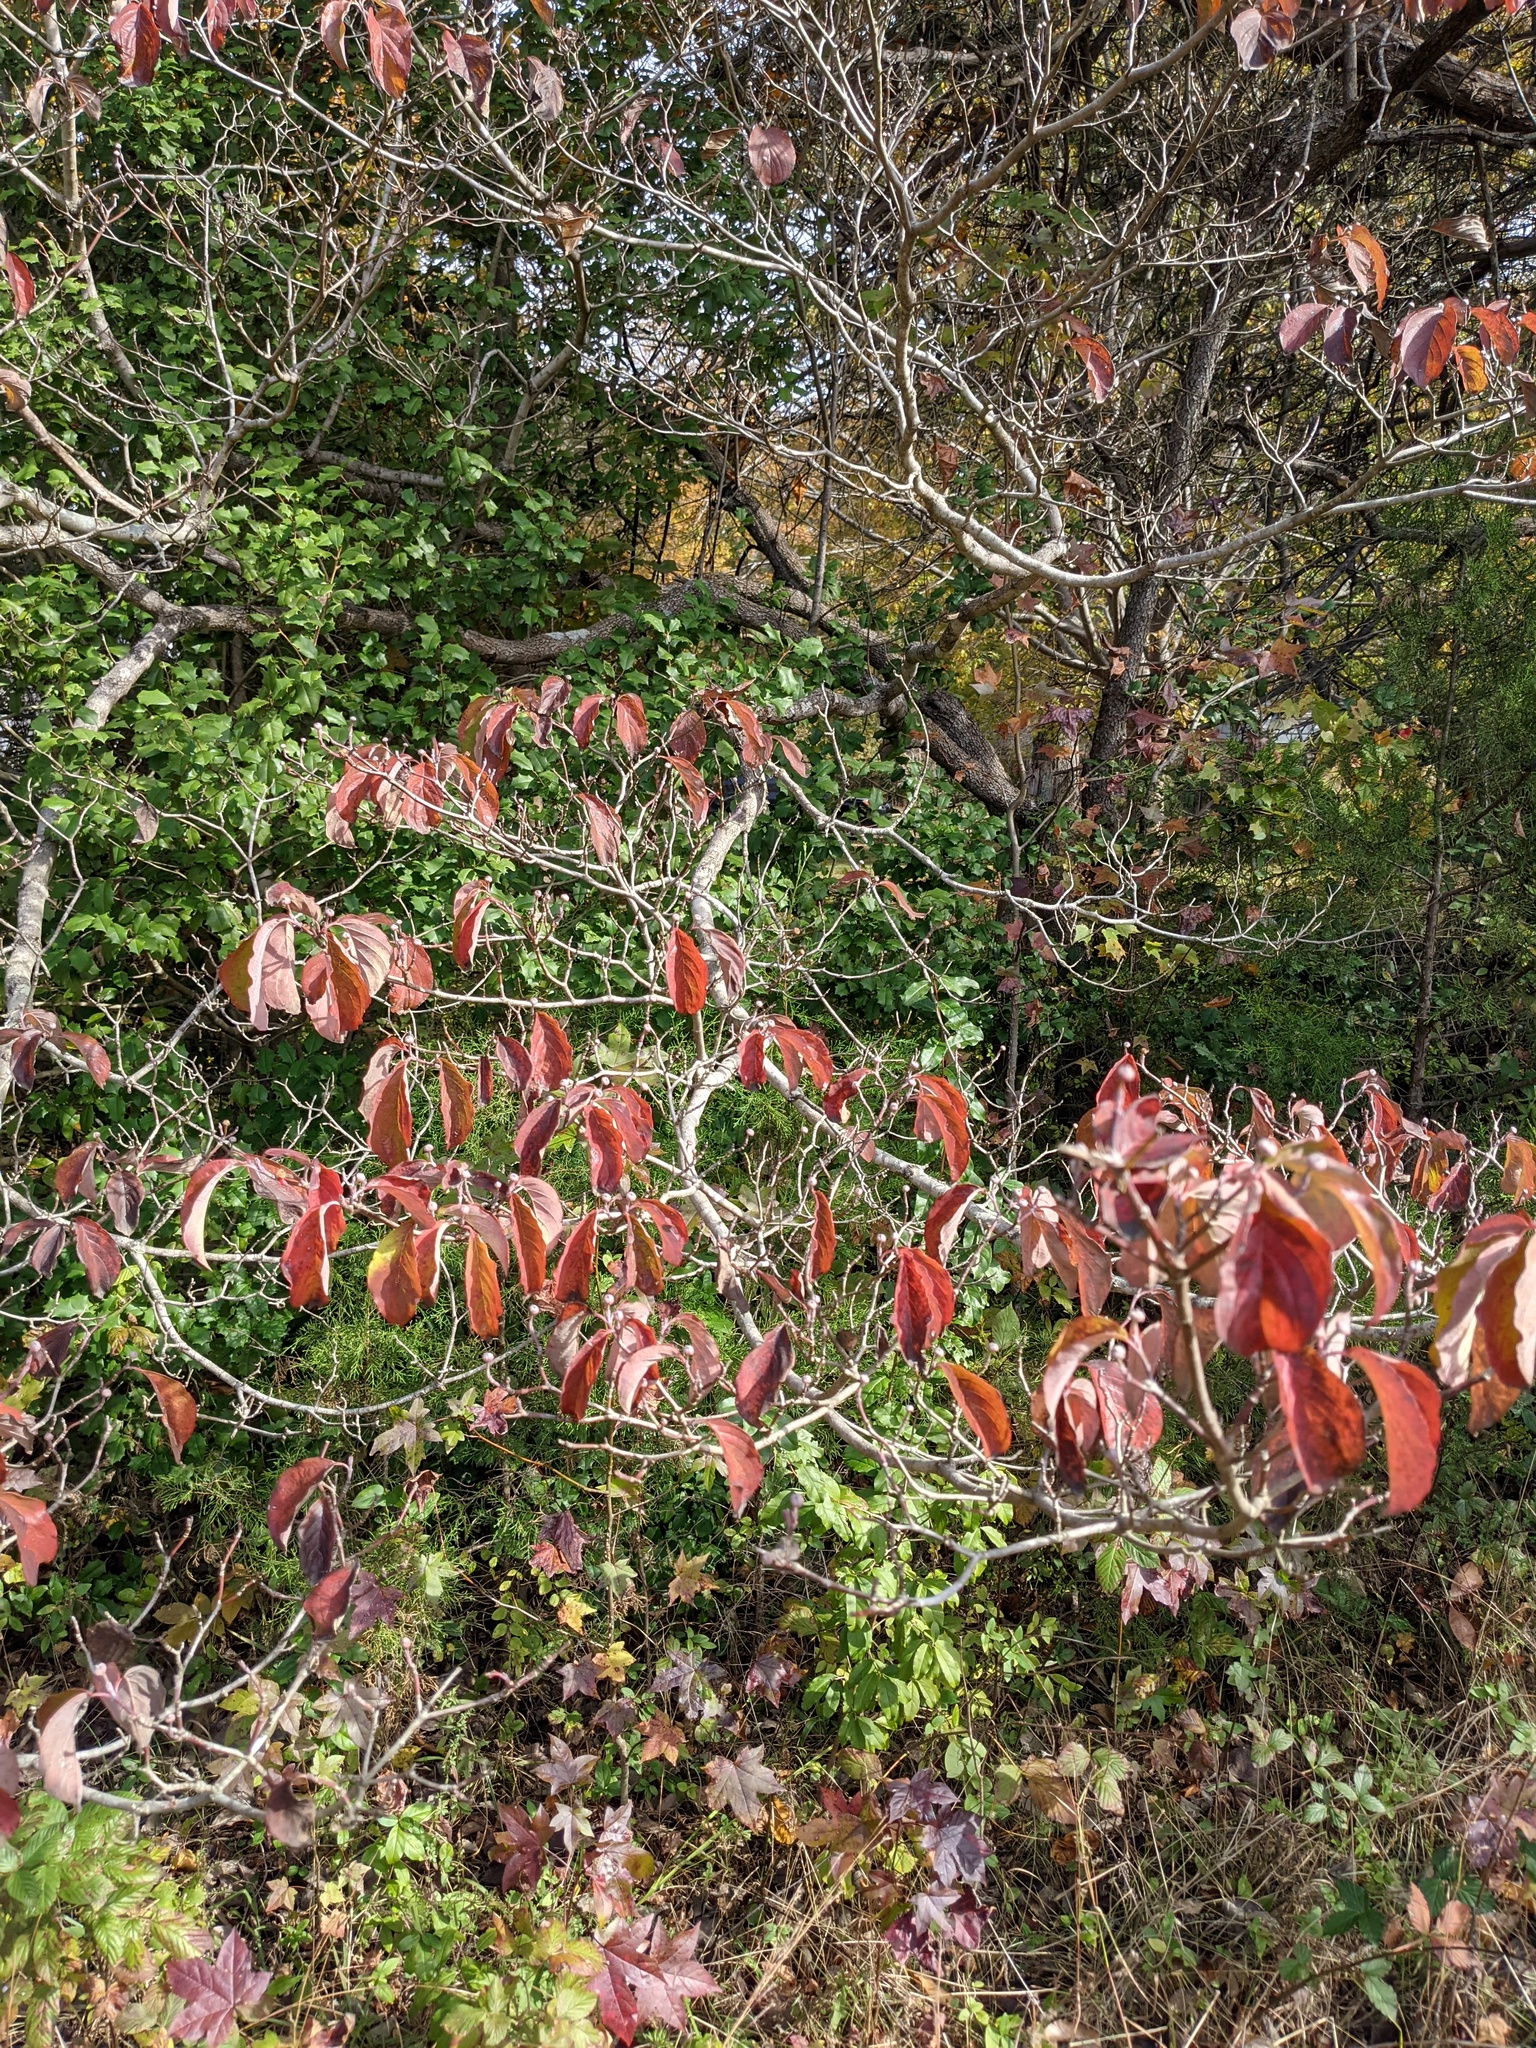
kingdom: Plantae
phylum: Tracheophyta
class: Magnoliopsida
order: Cornales
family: Cornaceae
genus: Cornus
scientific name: Cornus florida
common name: Flowering dogwood
